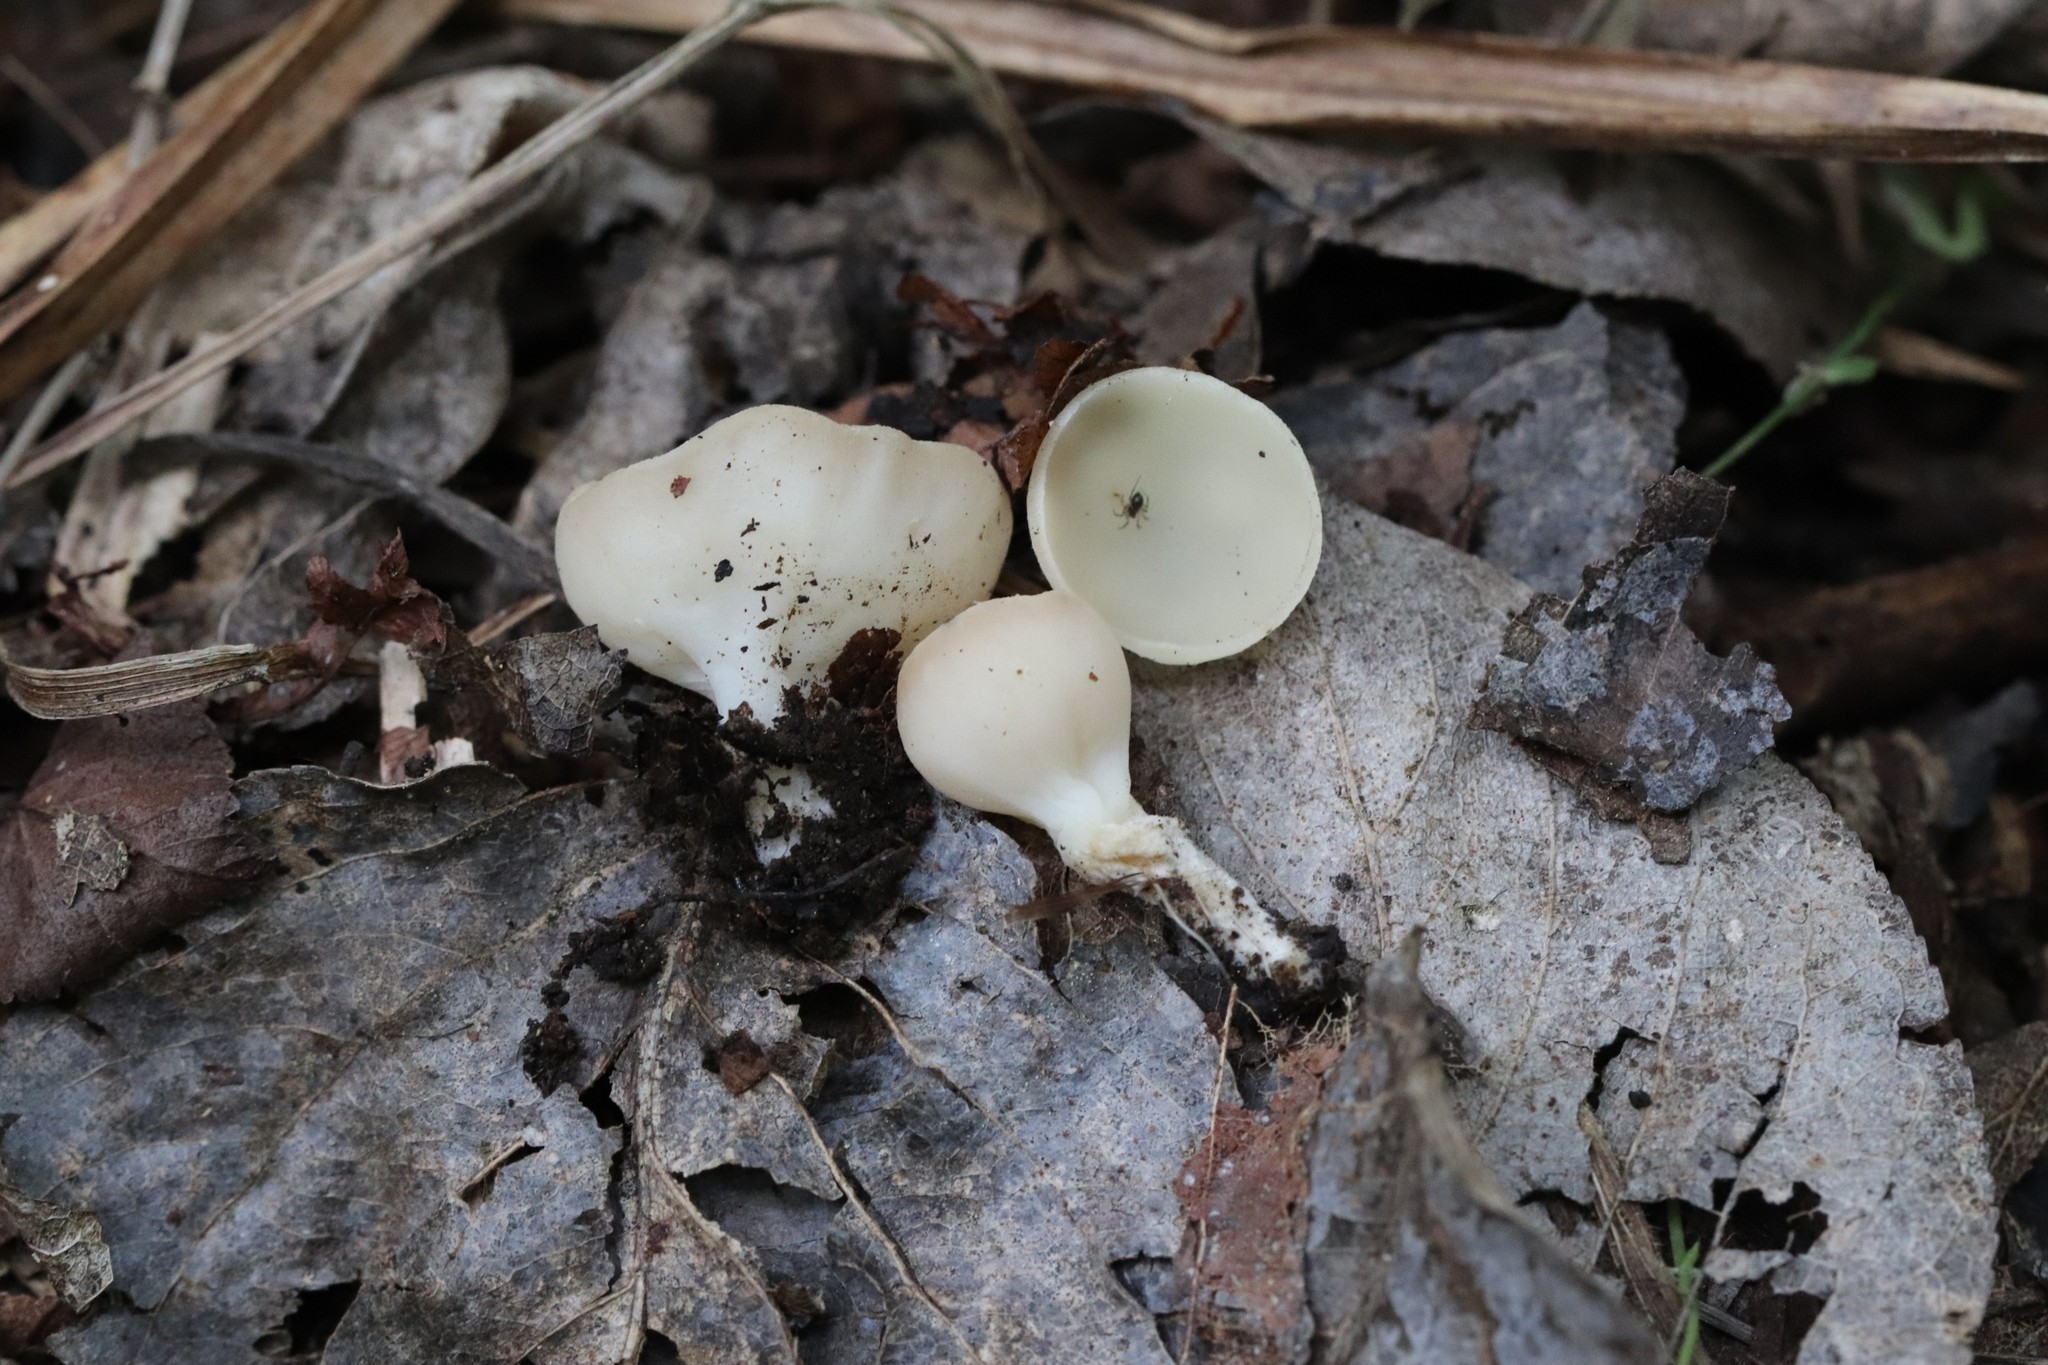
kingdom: Fungi
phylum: Ascomycota
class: Pezizomycetes
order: Pezizales
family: Sarcoscyphaceae
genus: Sarcoscypha
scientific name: Sarcoscypha vassiljevae
